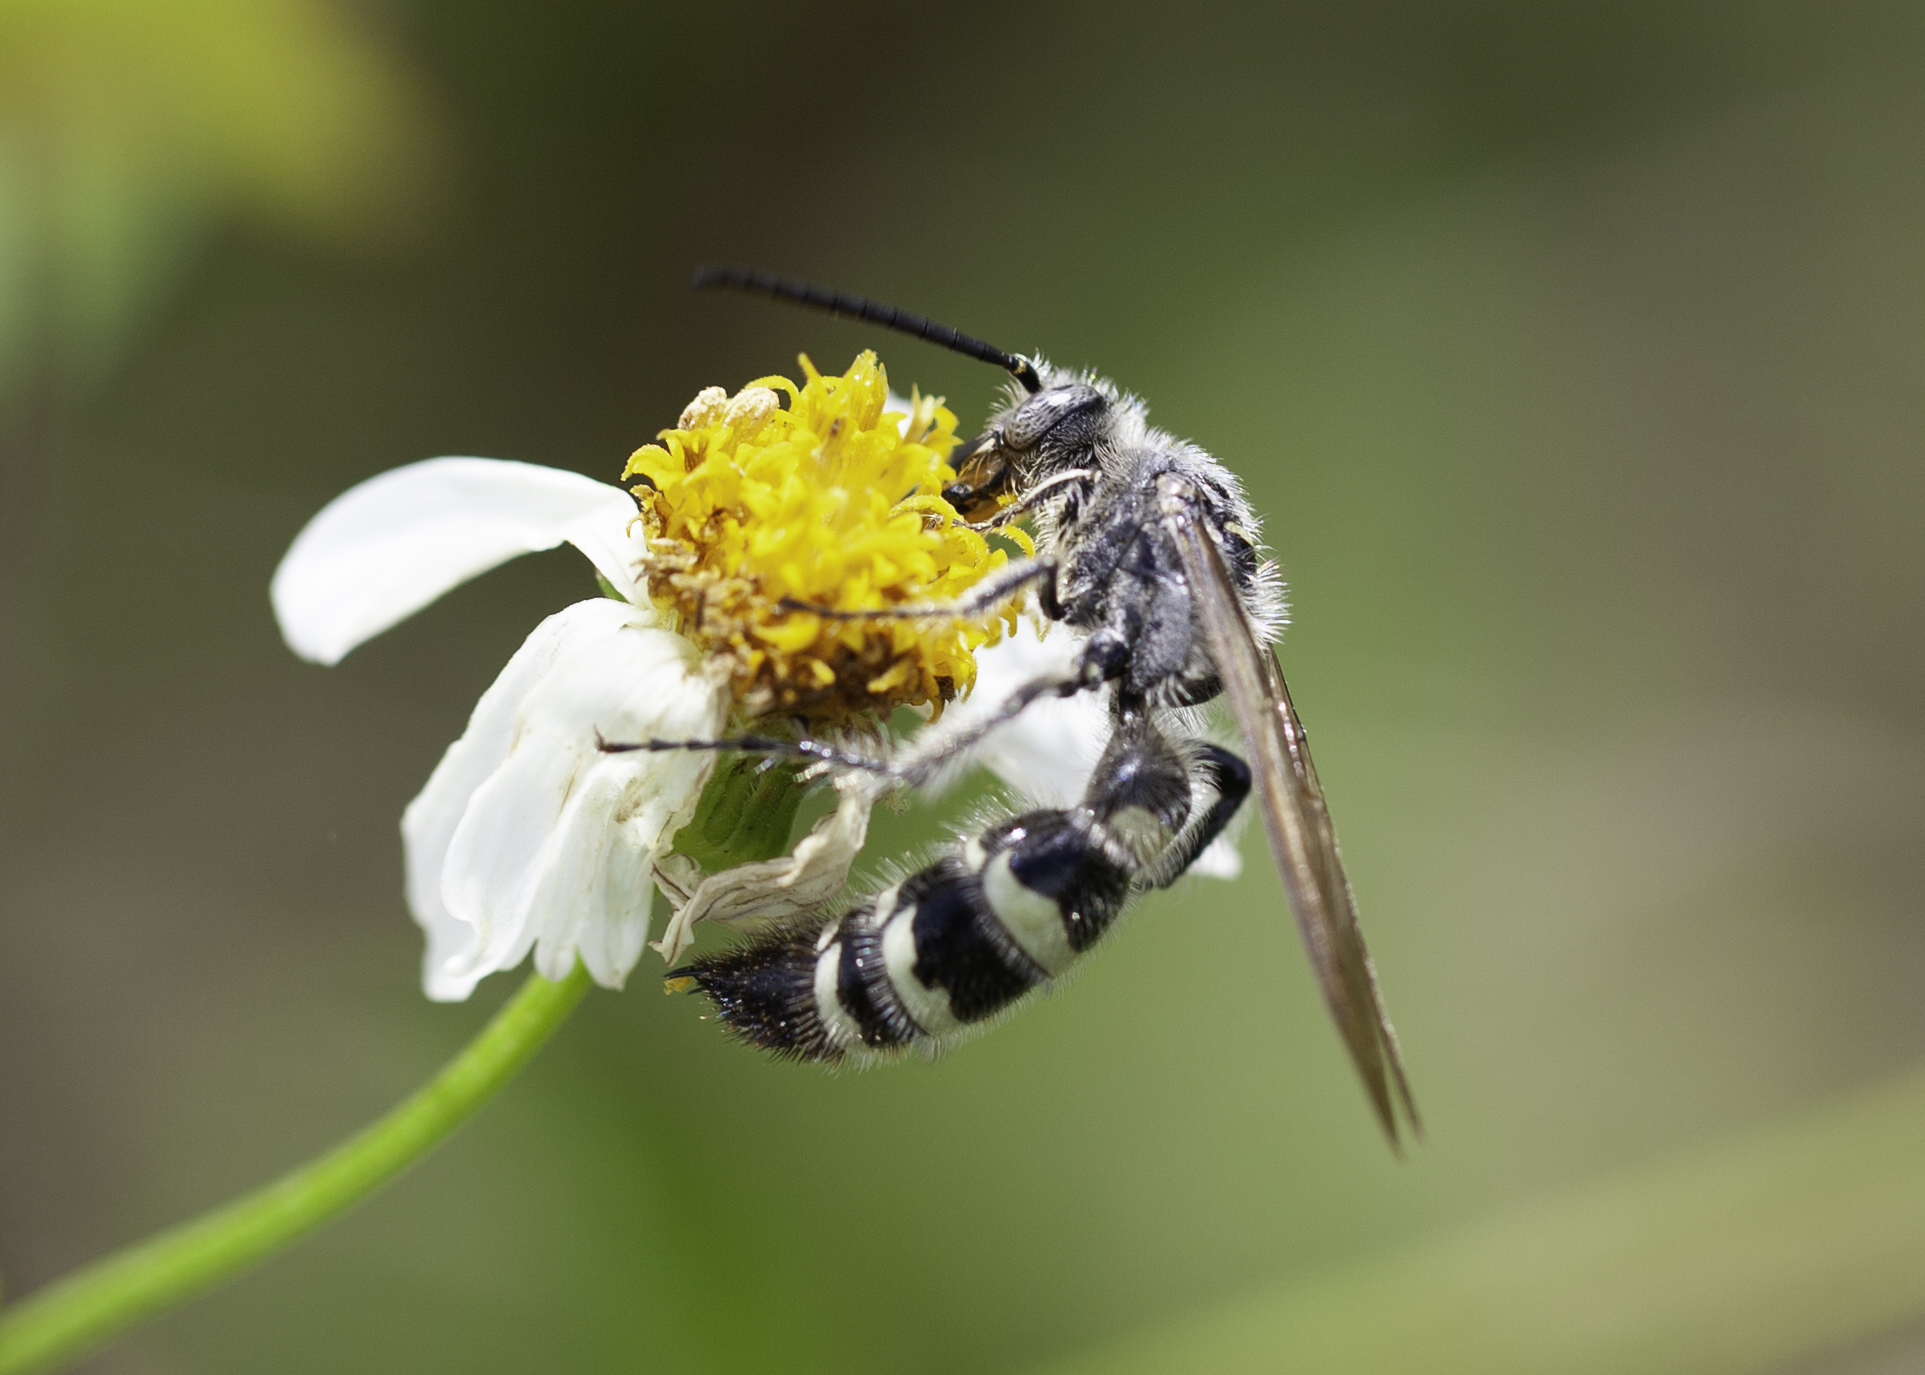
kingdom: Animalia
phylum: Arthropoda
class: Insecta
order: Hymenoptera
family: Scoliidae
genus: Dielis
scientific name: Dielis
